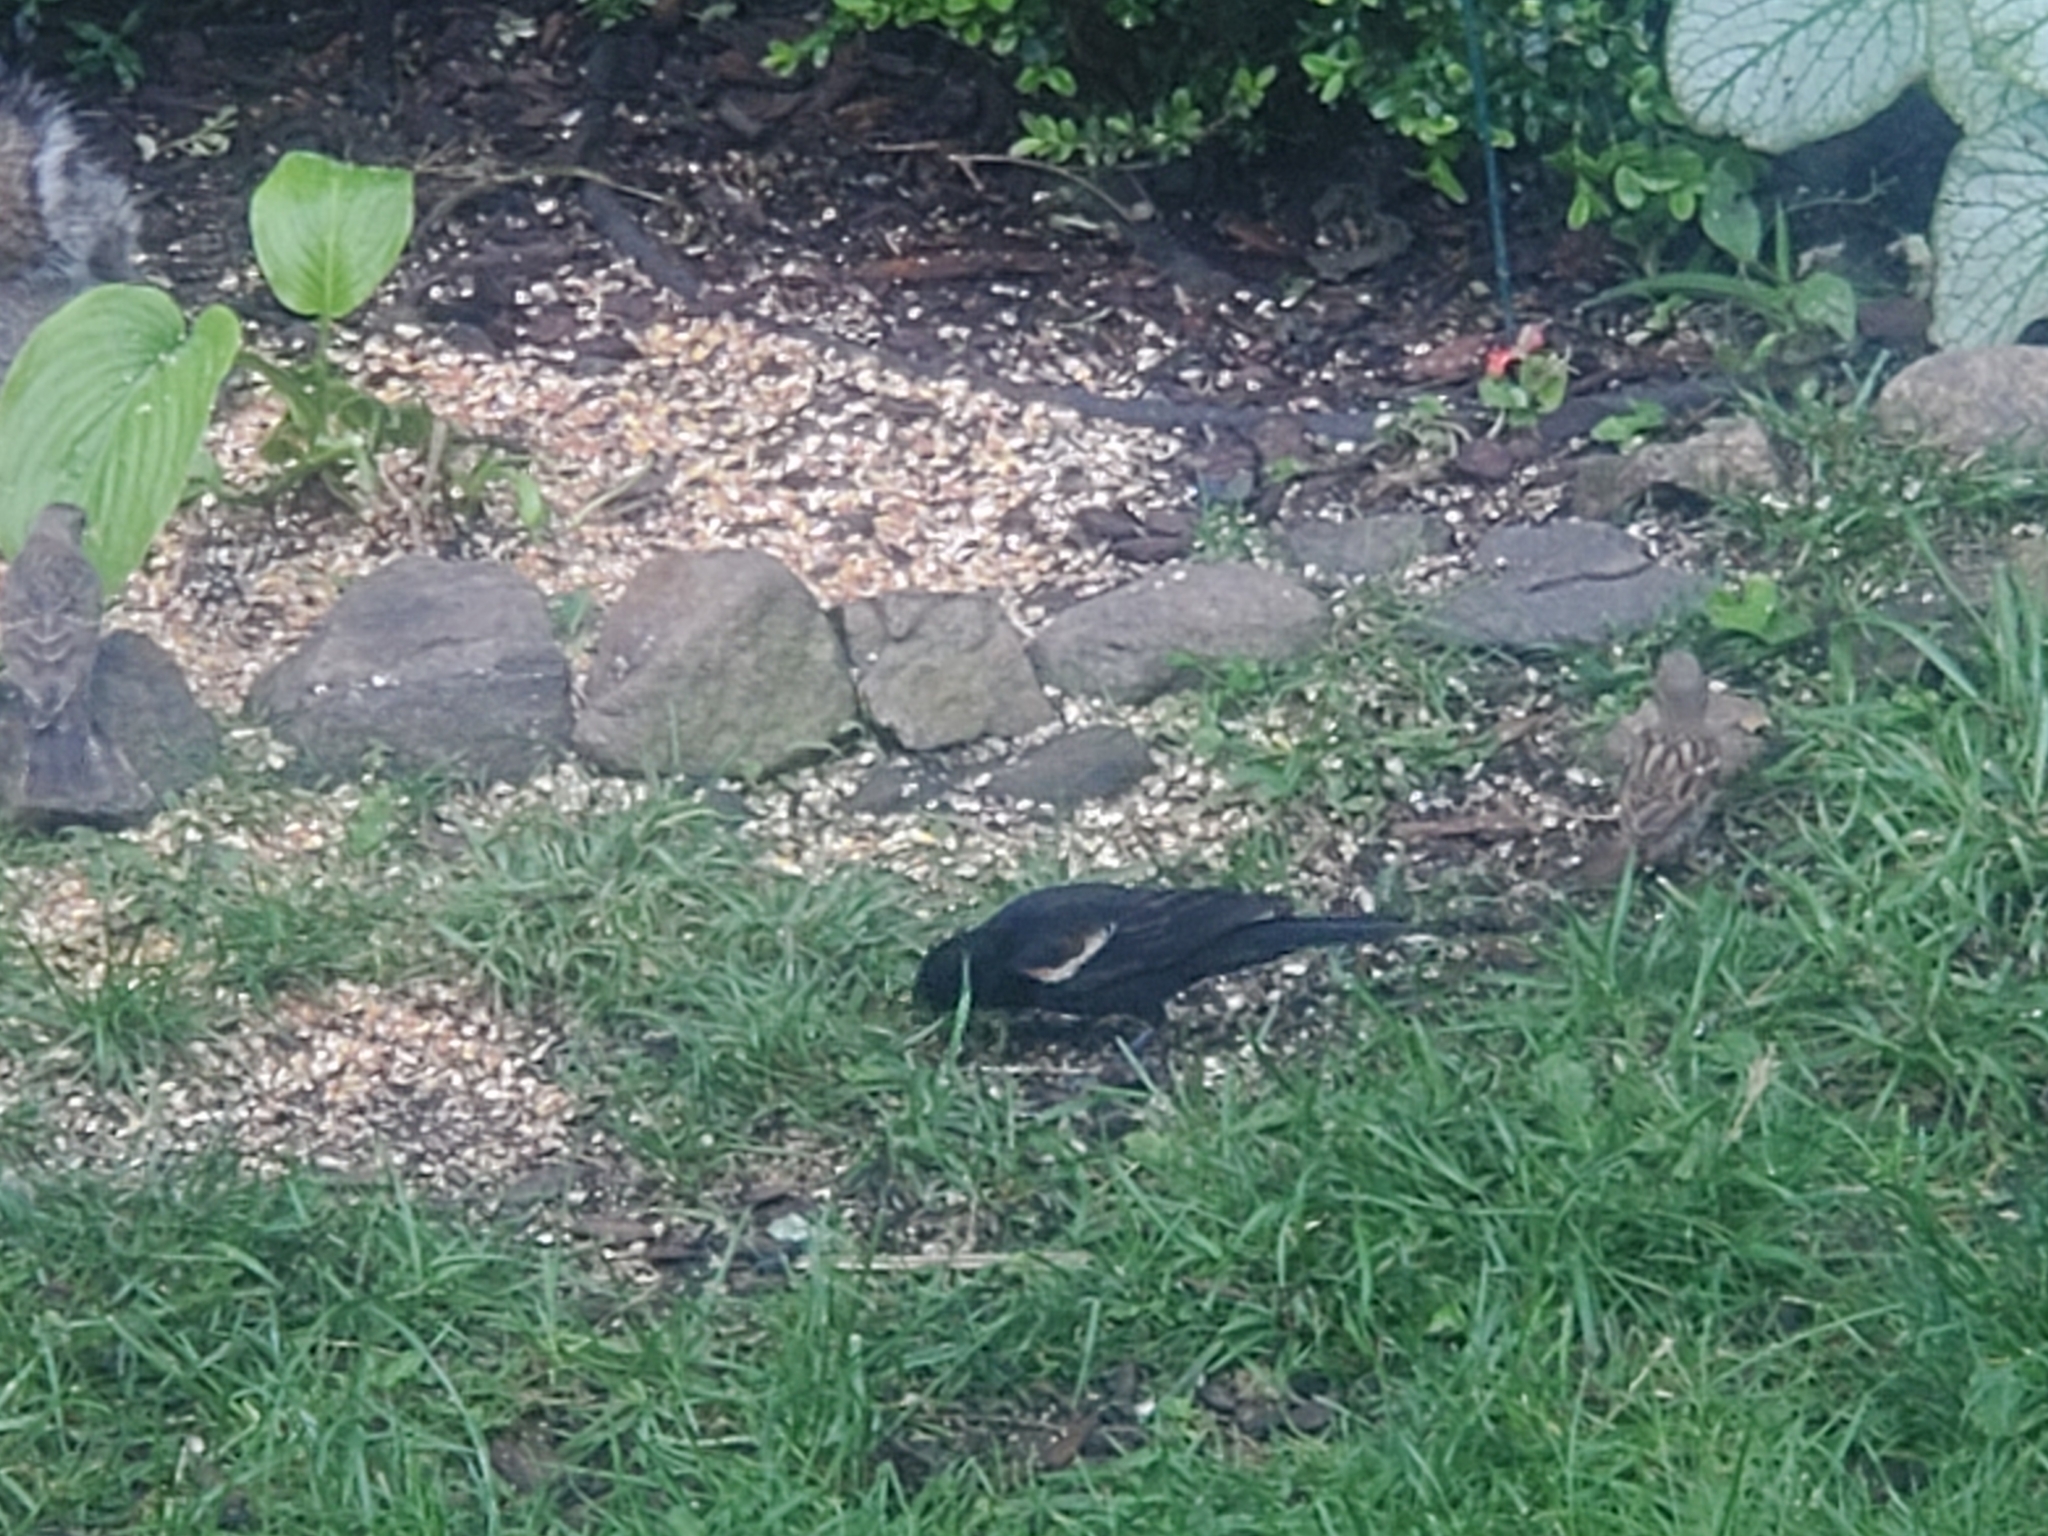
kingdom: Animalia
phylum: Chordata
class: Aves
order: Passeriformes
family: Icteridae
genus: Agelaius
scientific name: Agelaius phoeniceus
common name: Red-winged blackbird
